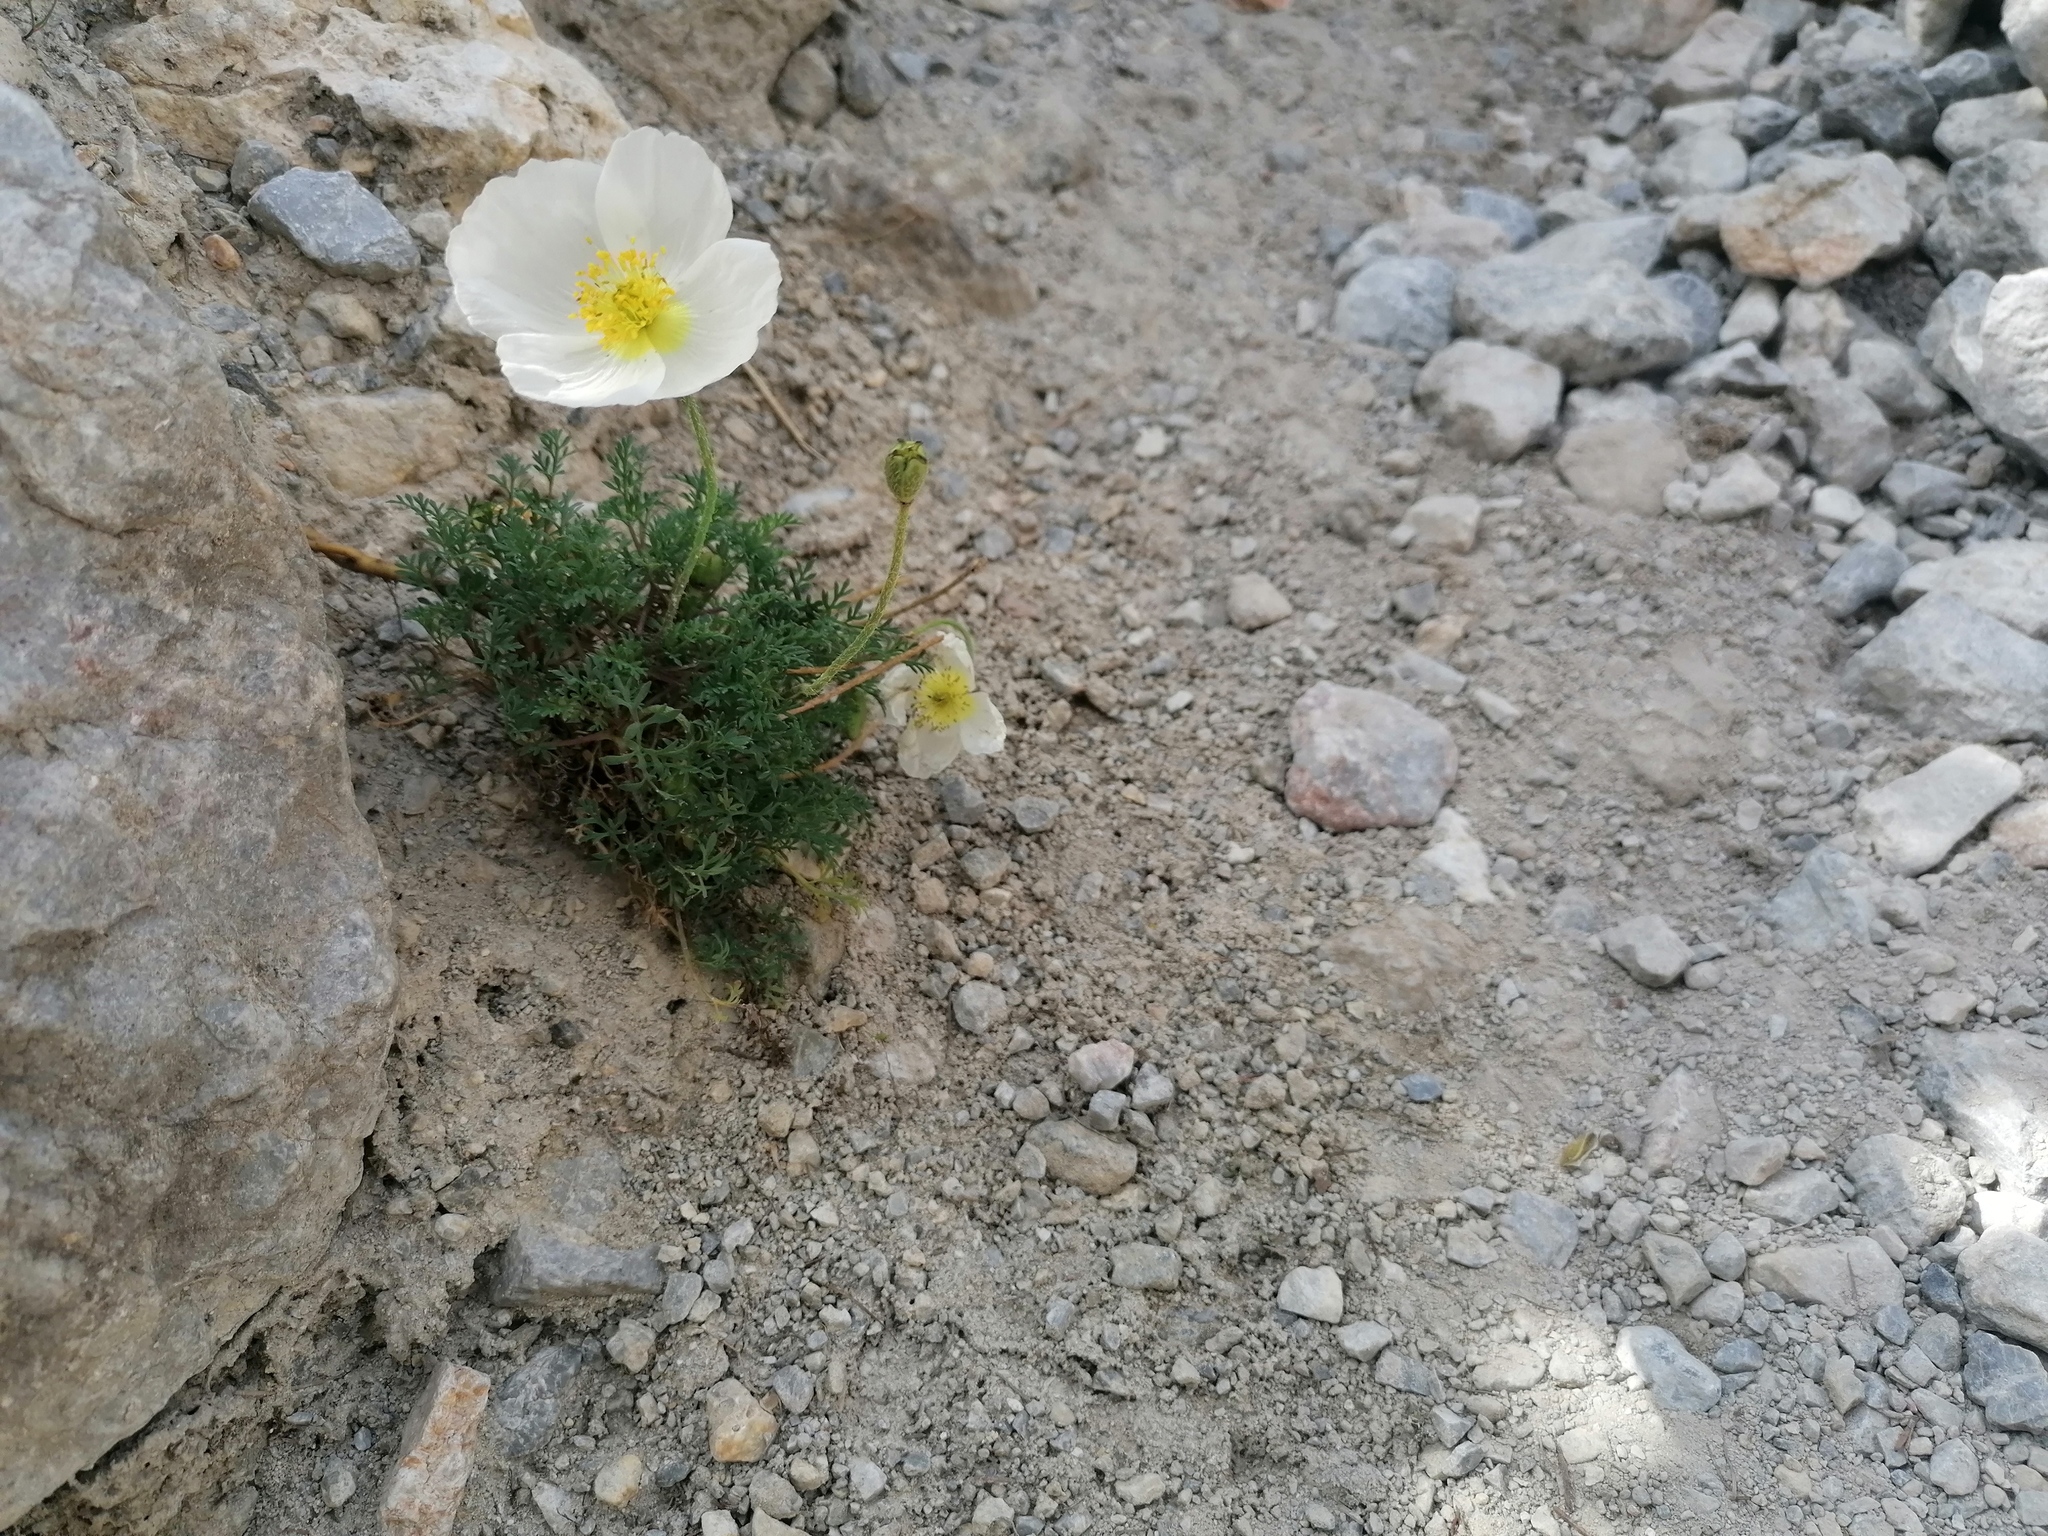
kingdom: Plantae
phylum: Tracheophyta
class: Magnoliopsida
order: Ranunculales
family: Papaveraceae
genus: Papaver
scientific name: Papaver alpinum
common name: Austrian poppy
